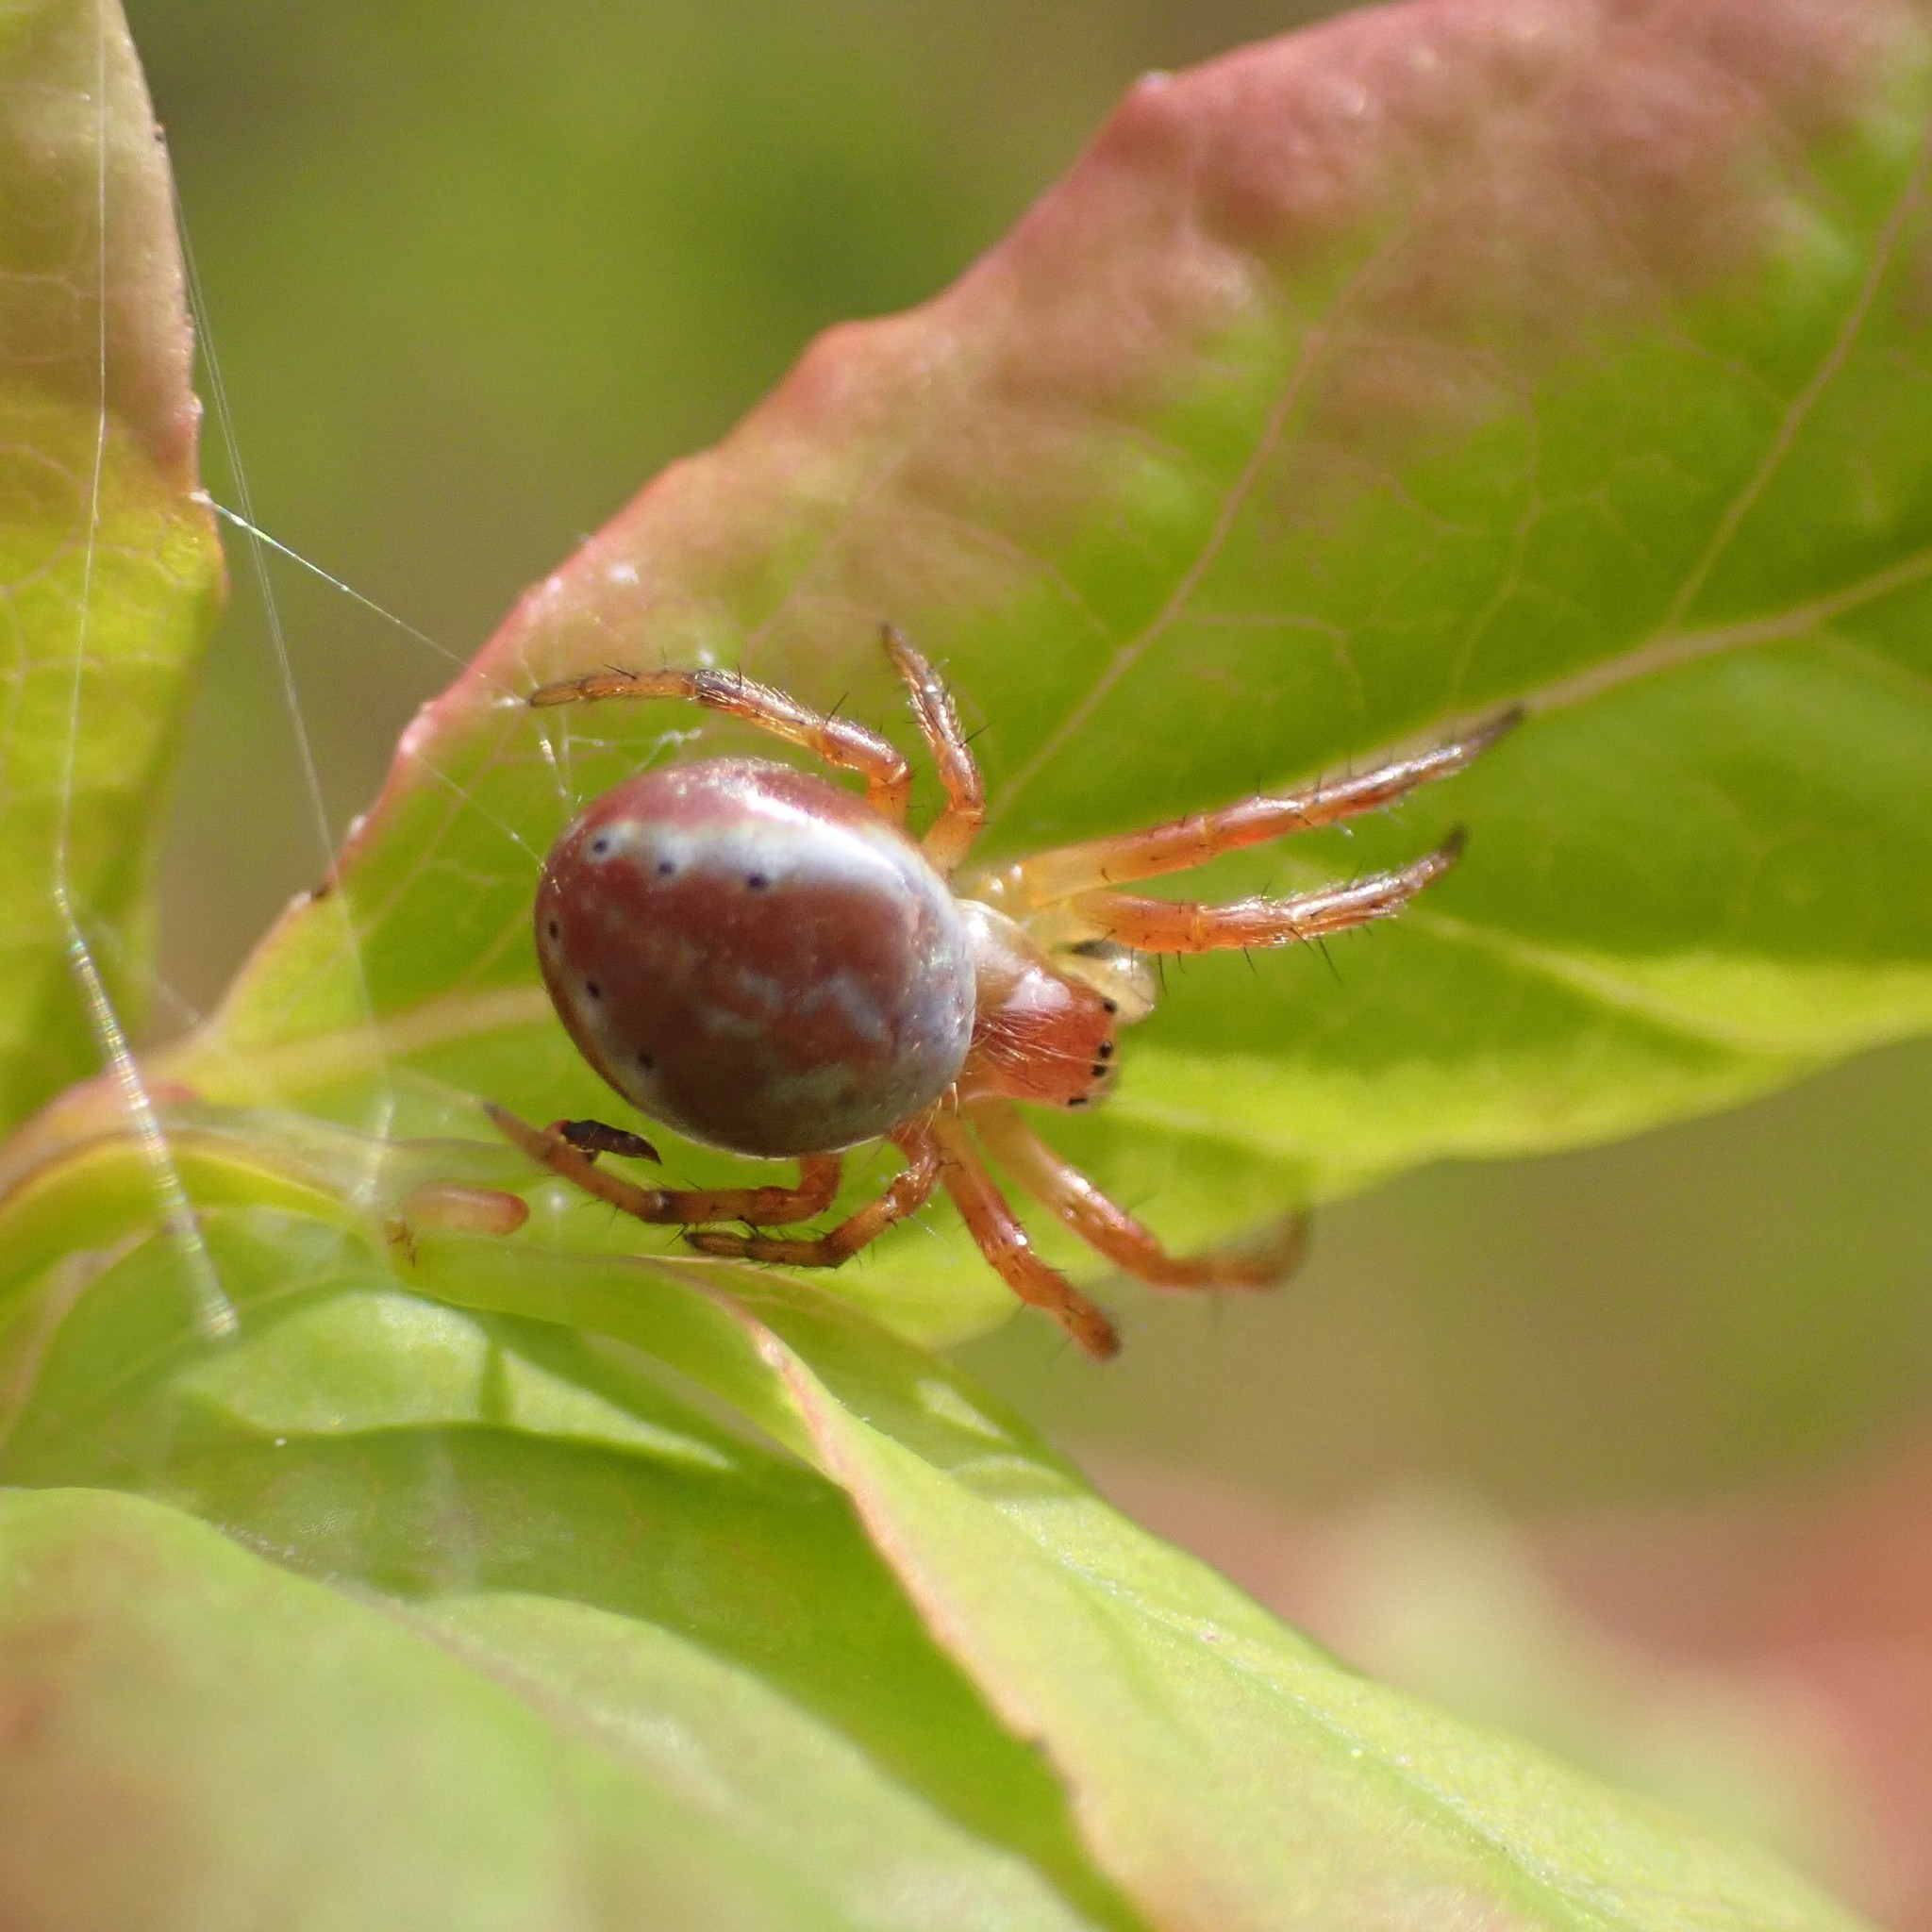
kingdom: Animalia
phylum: Arthropoda
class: Arachnida
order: Araneae
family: Araneidae
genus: Araniella
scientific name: Araniella displicata
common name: Sixspotted orb weaver
